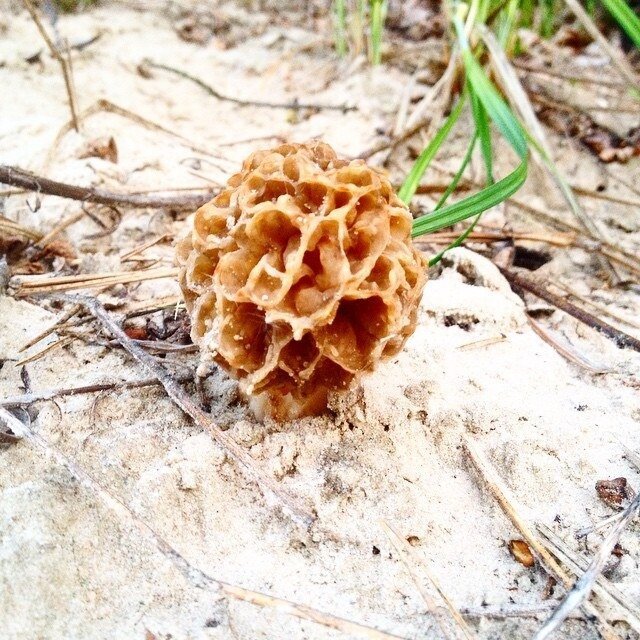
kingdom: Fungi
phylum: Ascomycota
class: Pezizomycetes
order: Pezizales
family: Morchellaceae
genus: Morchella
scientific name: Morchella
